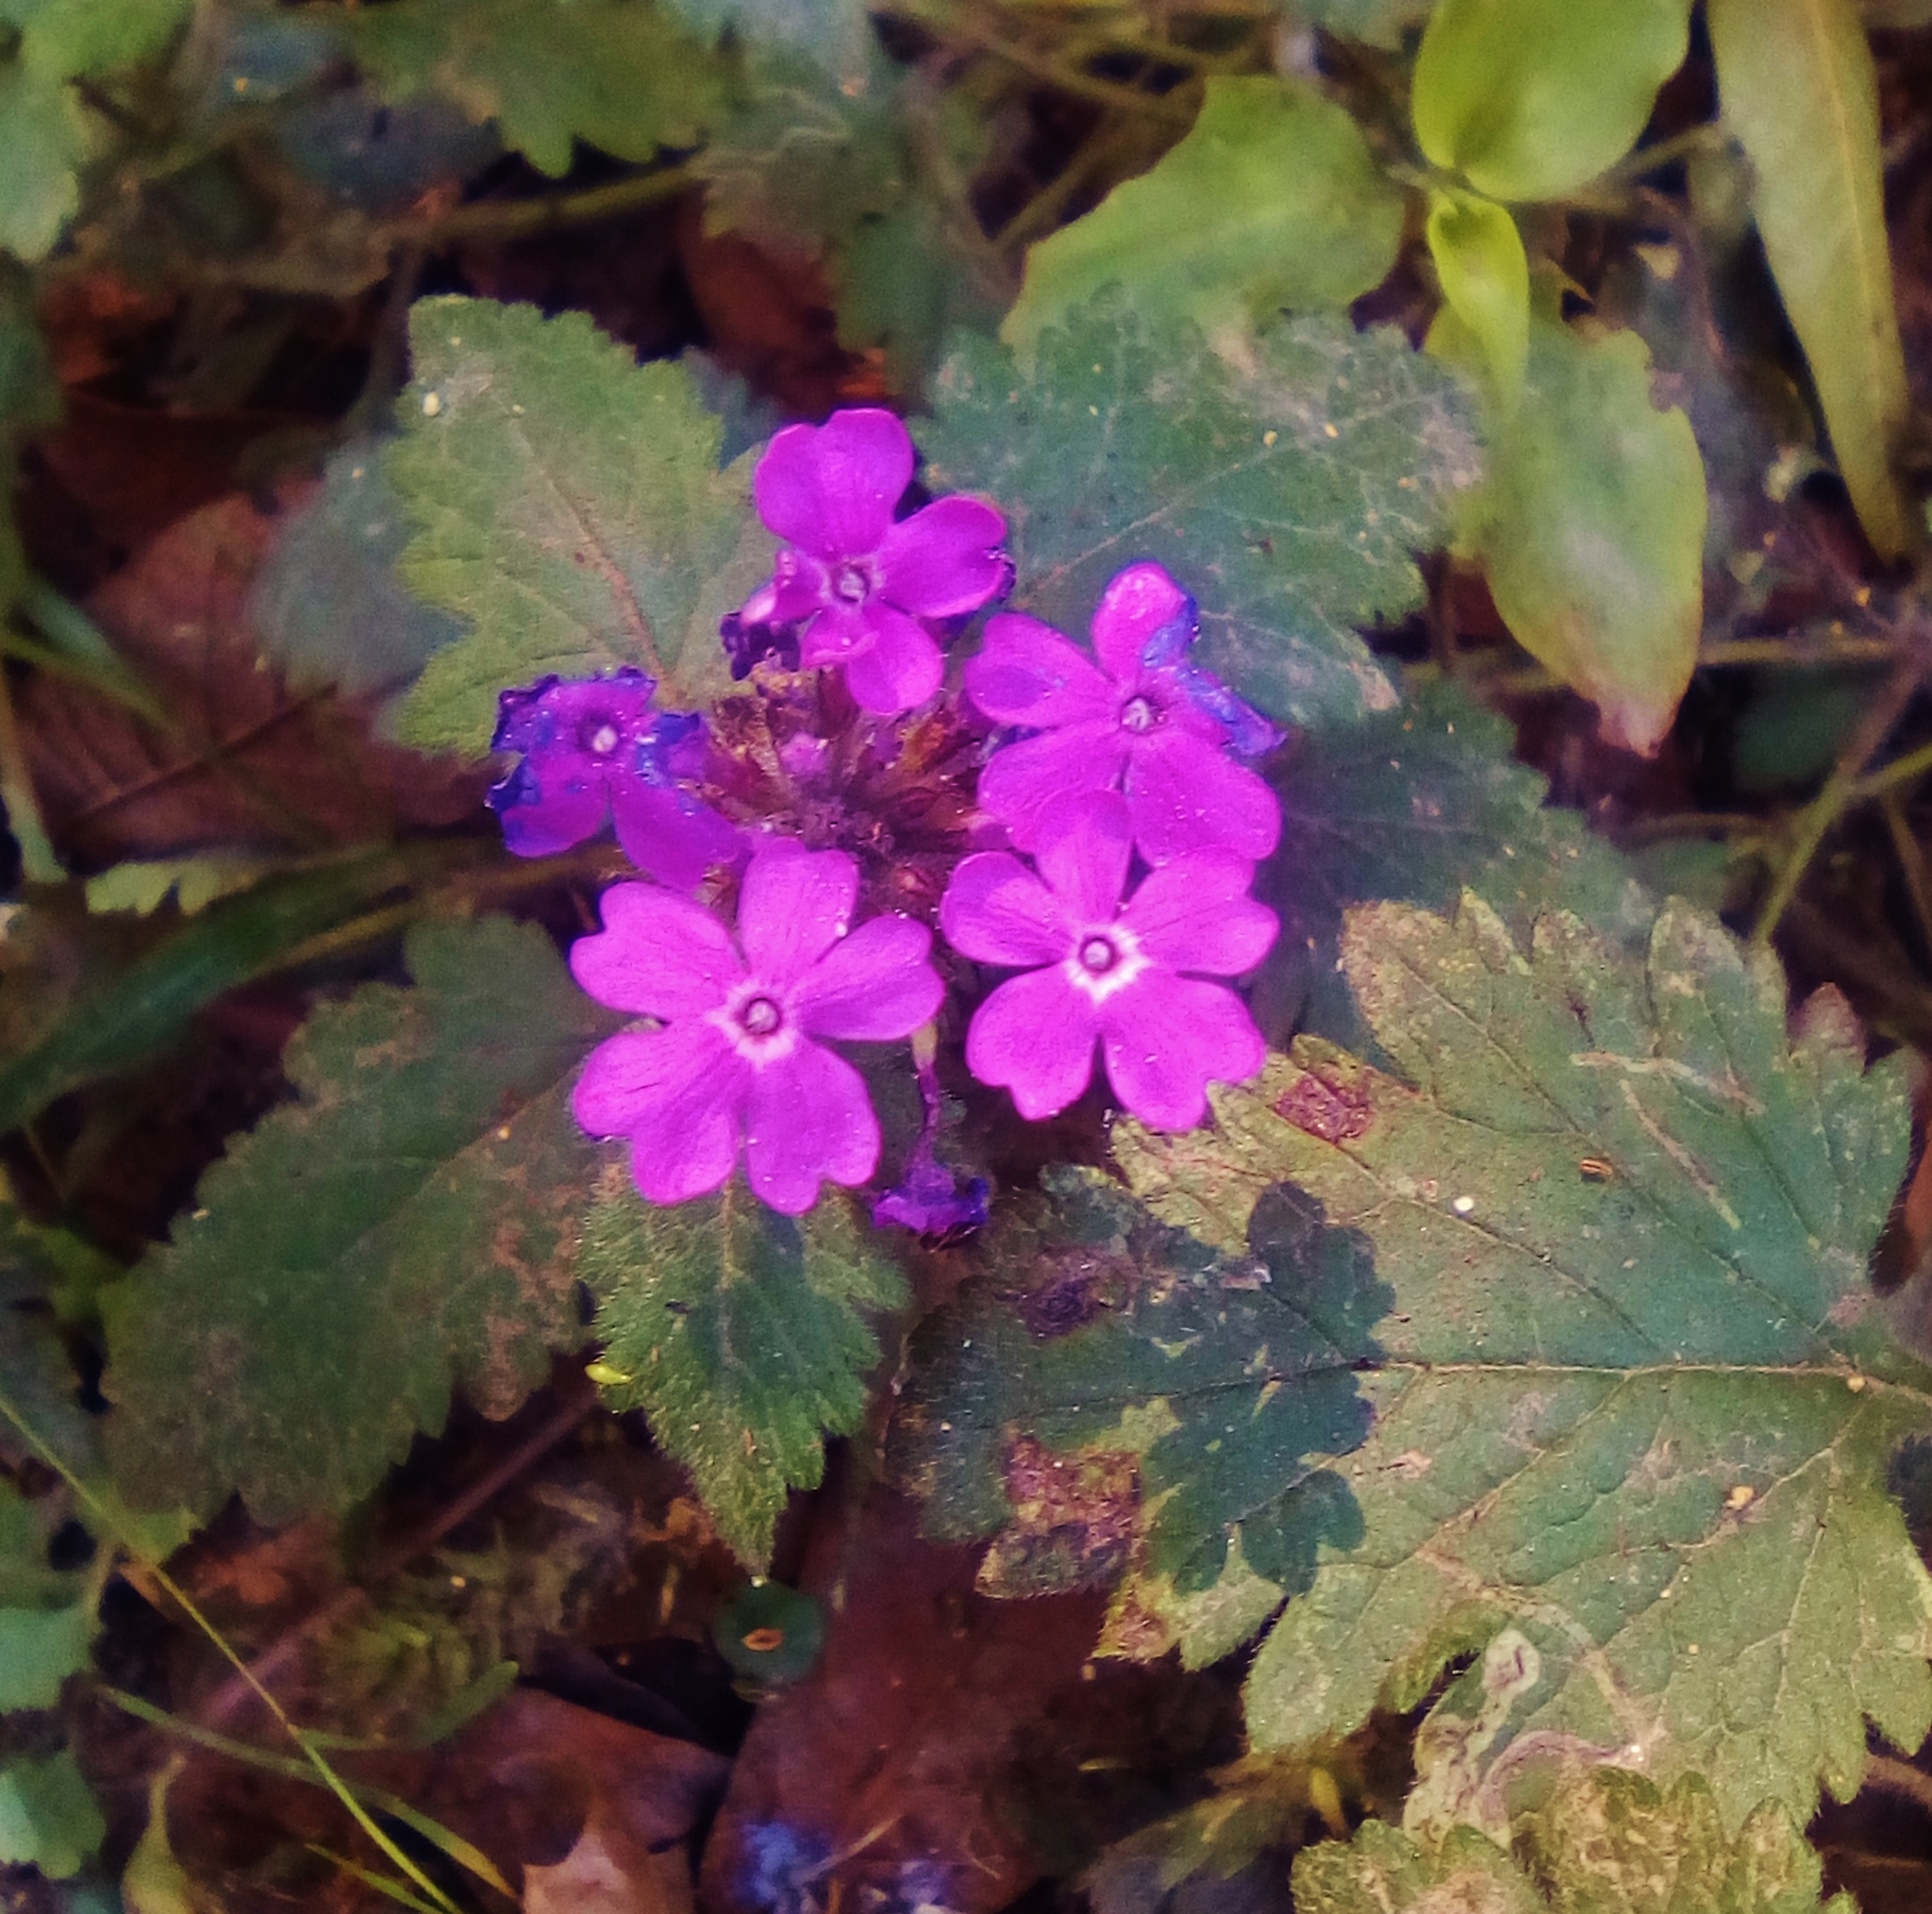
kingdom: Plantae
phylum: Tracheophyta
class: Magnoliopsida
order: Lamiales
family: Verbenaceae
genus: Verbena
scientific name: Verbena canadensis
